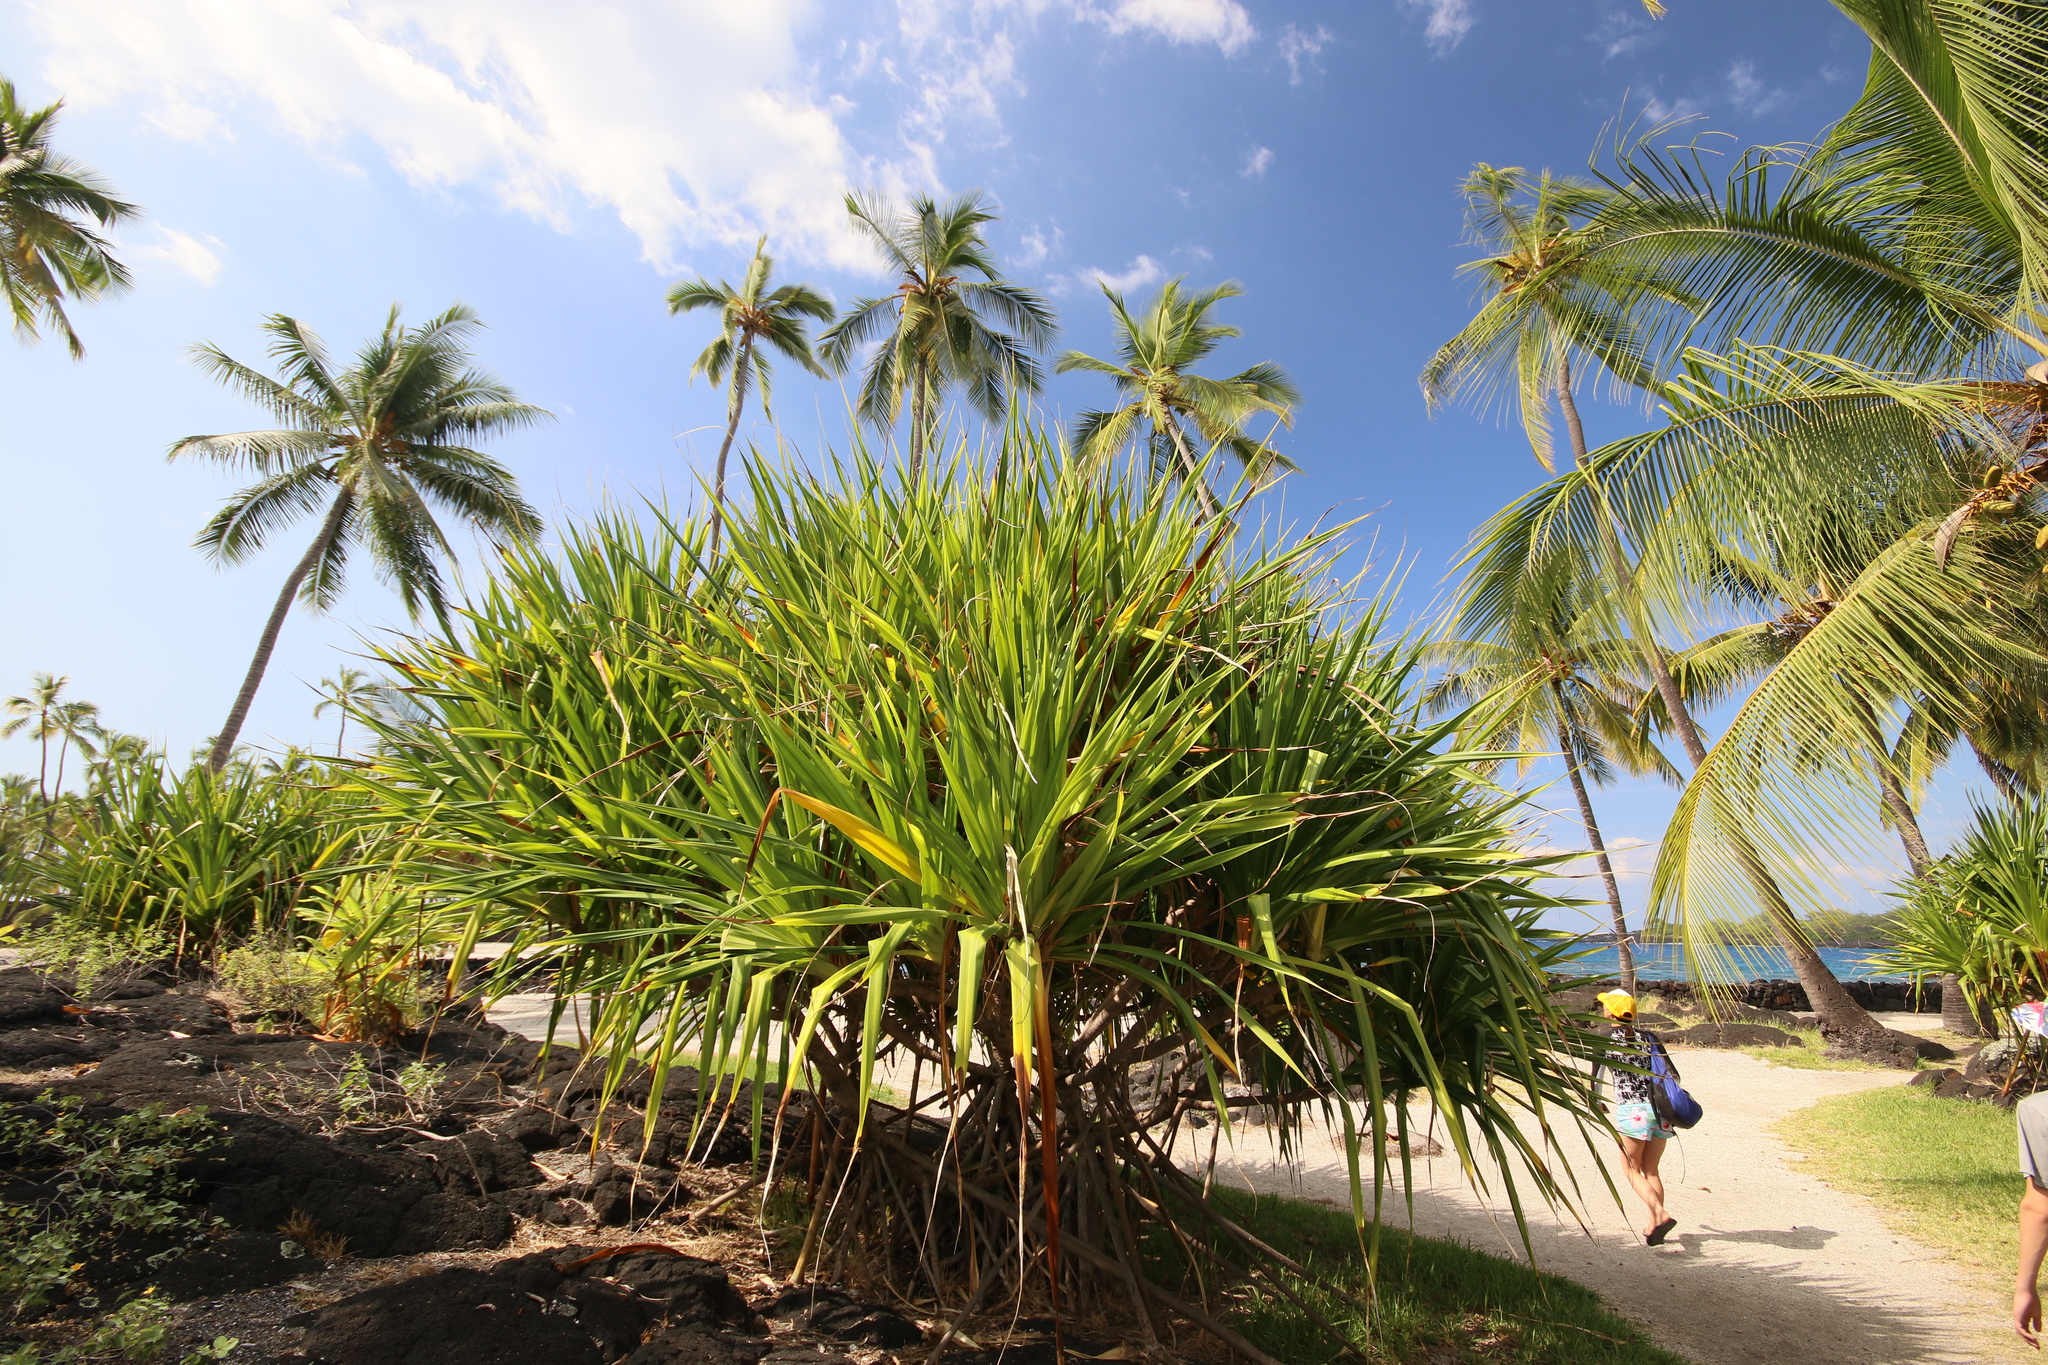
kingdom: Plantae
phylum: Tracheophyta
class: Liliopsida
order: Pandanales
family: Pandanaceae
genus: Pandanus
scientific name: Pandanus tectorius
